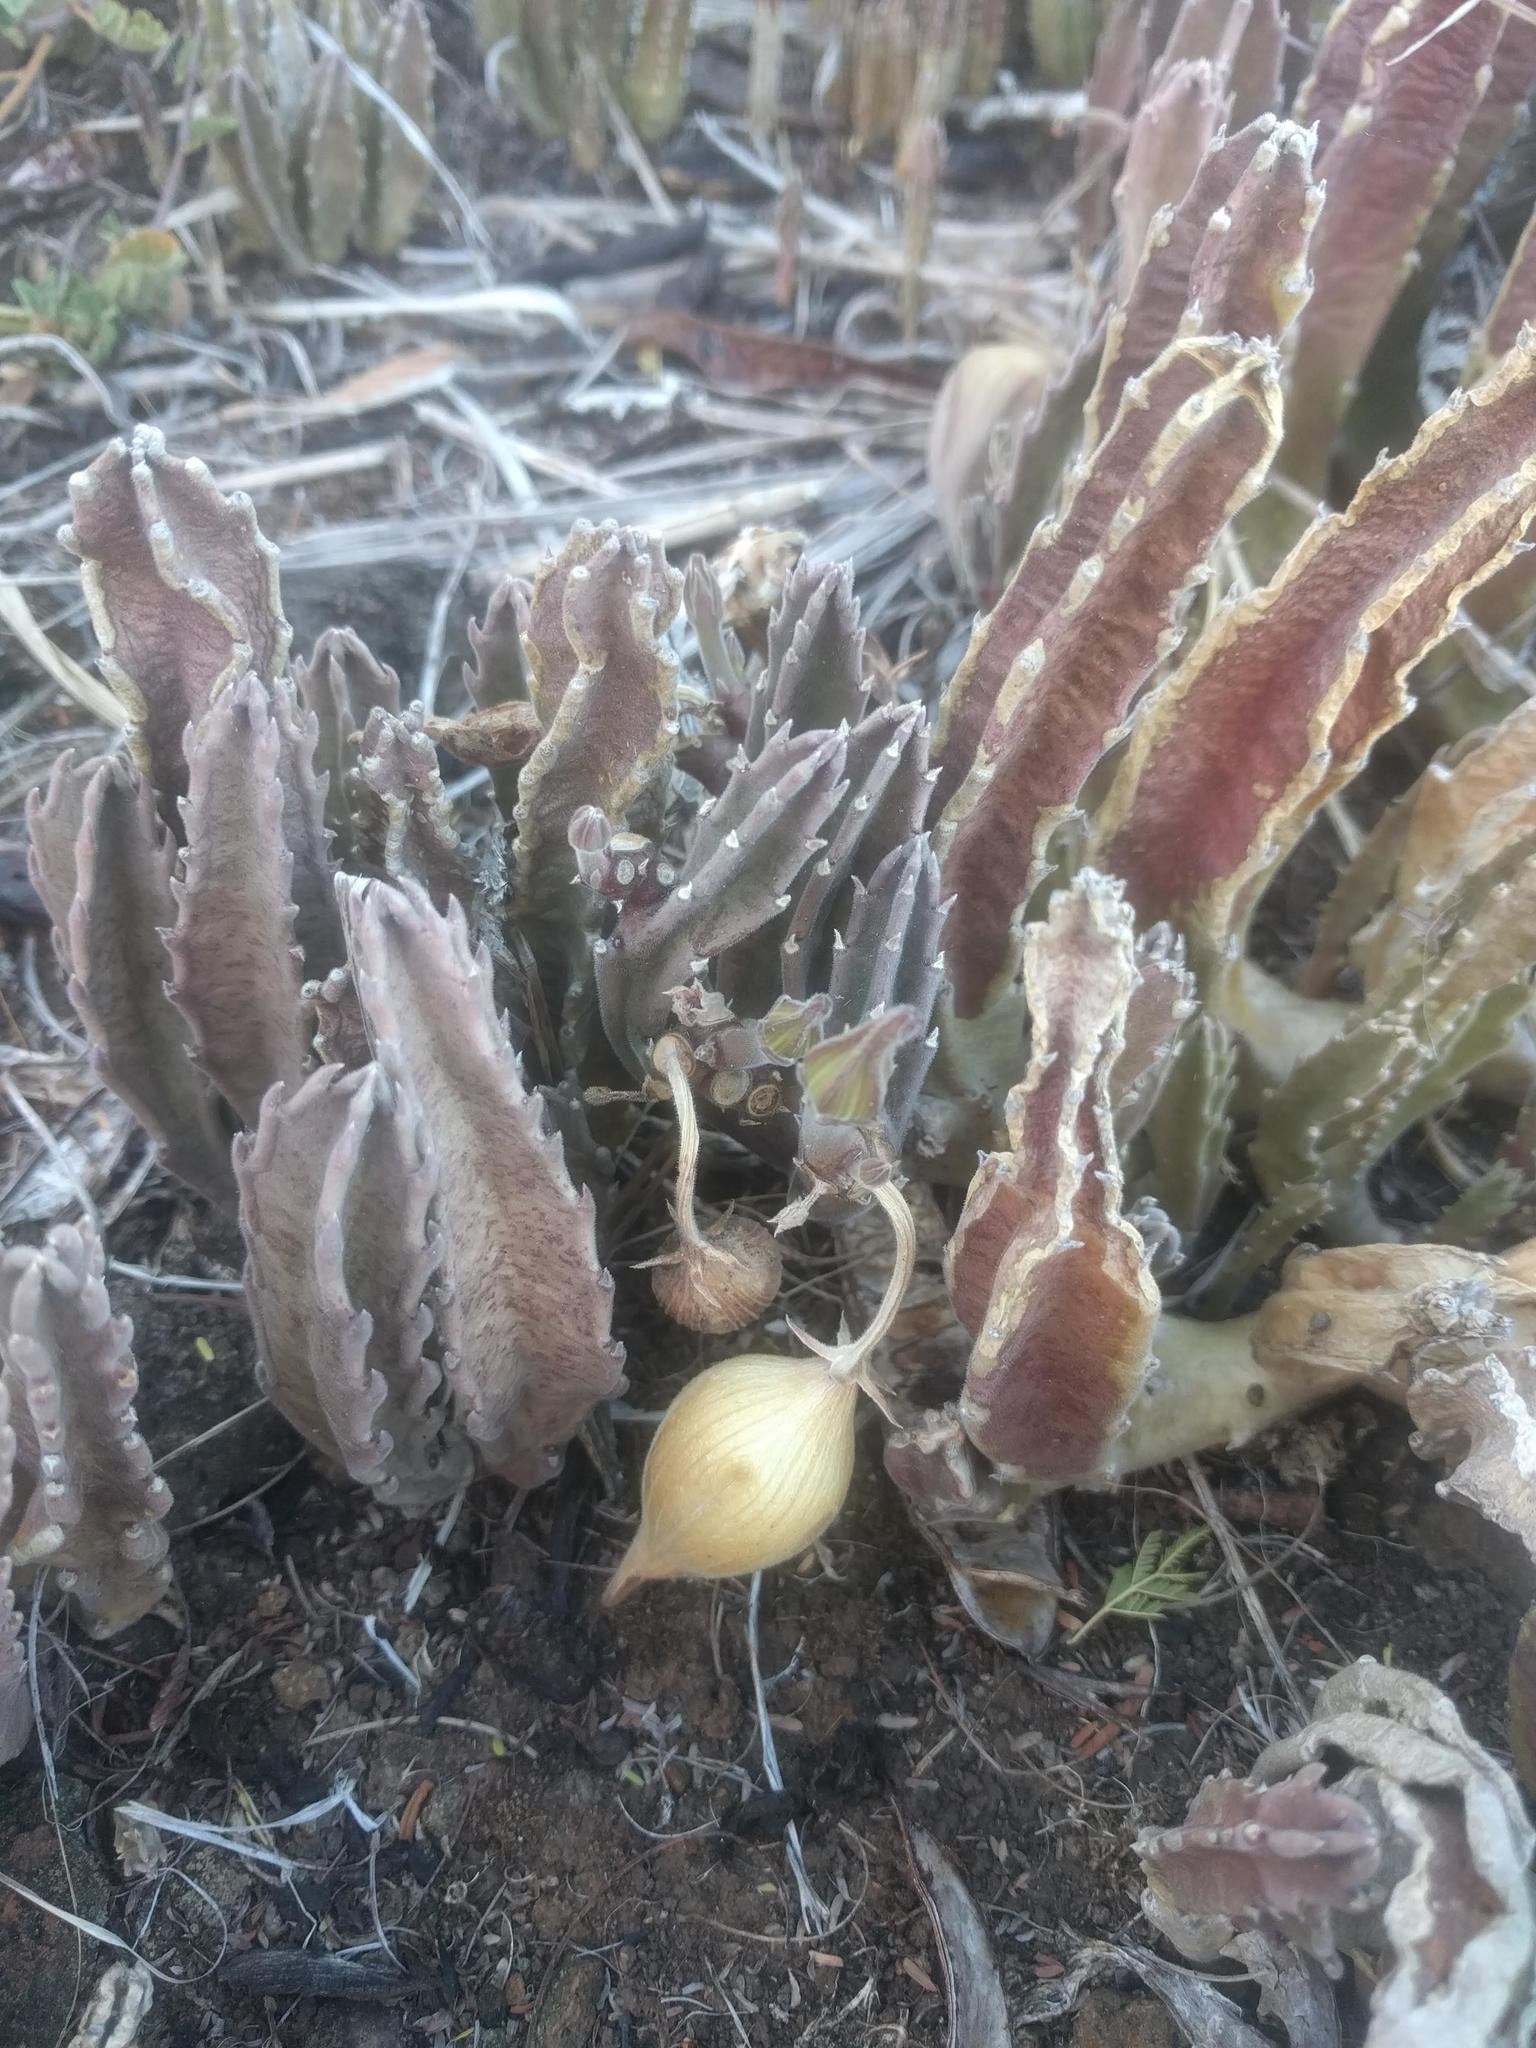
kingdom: Plantae
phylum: Tracheophyta
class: Magnoliopsida
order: Gentianales
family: Apocynaceae
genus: Ceropegia
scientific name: Ceropegia gigantea
